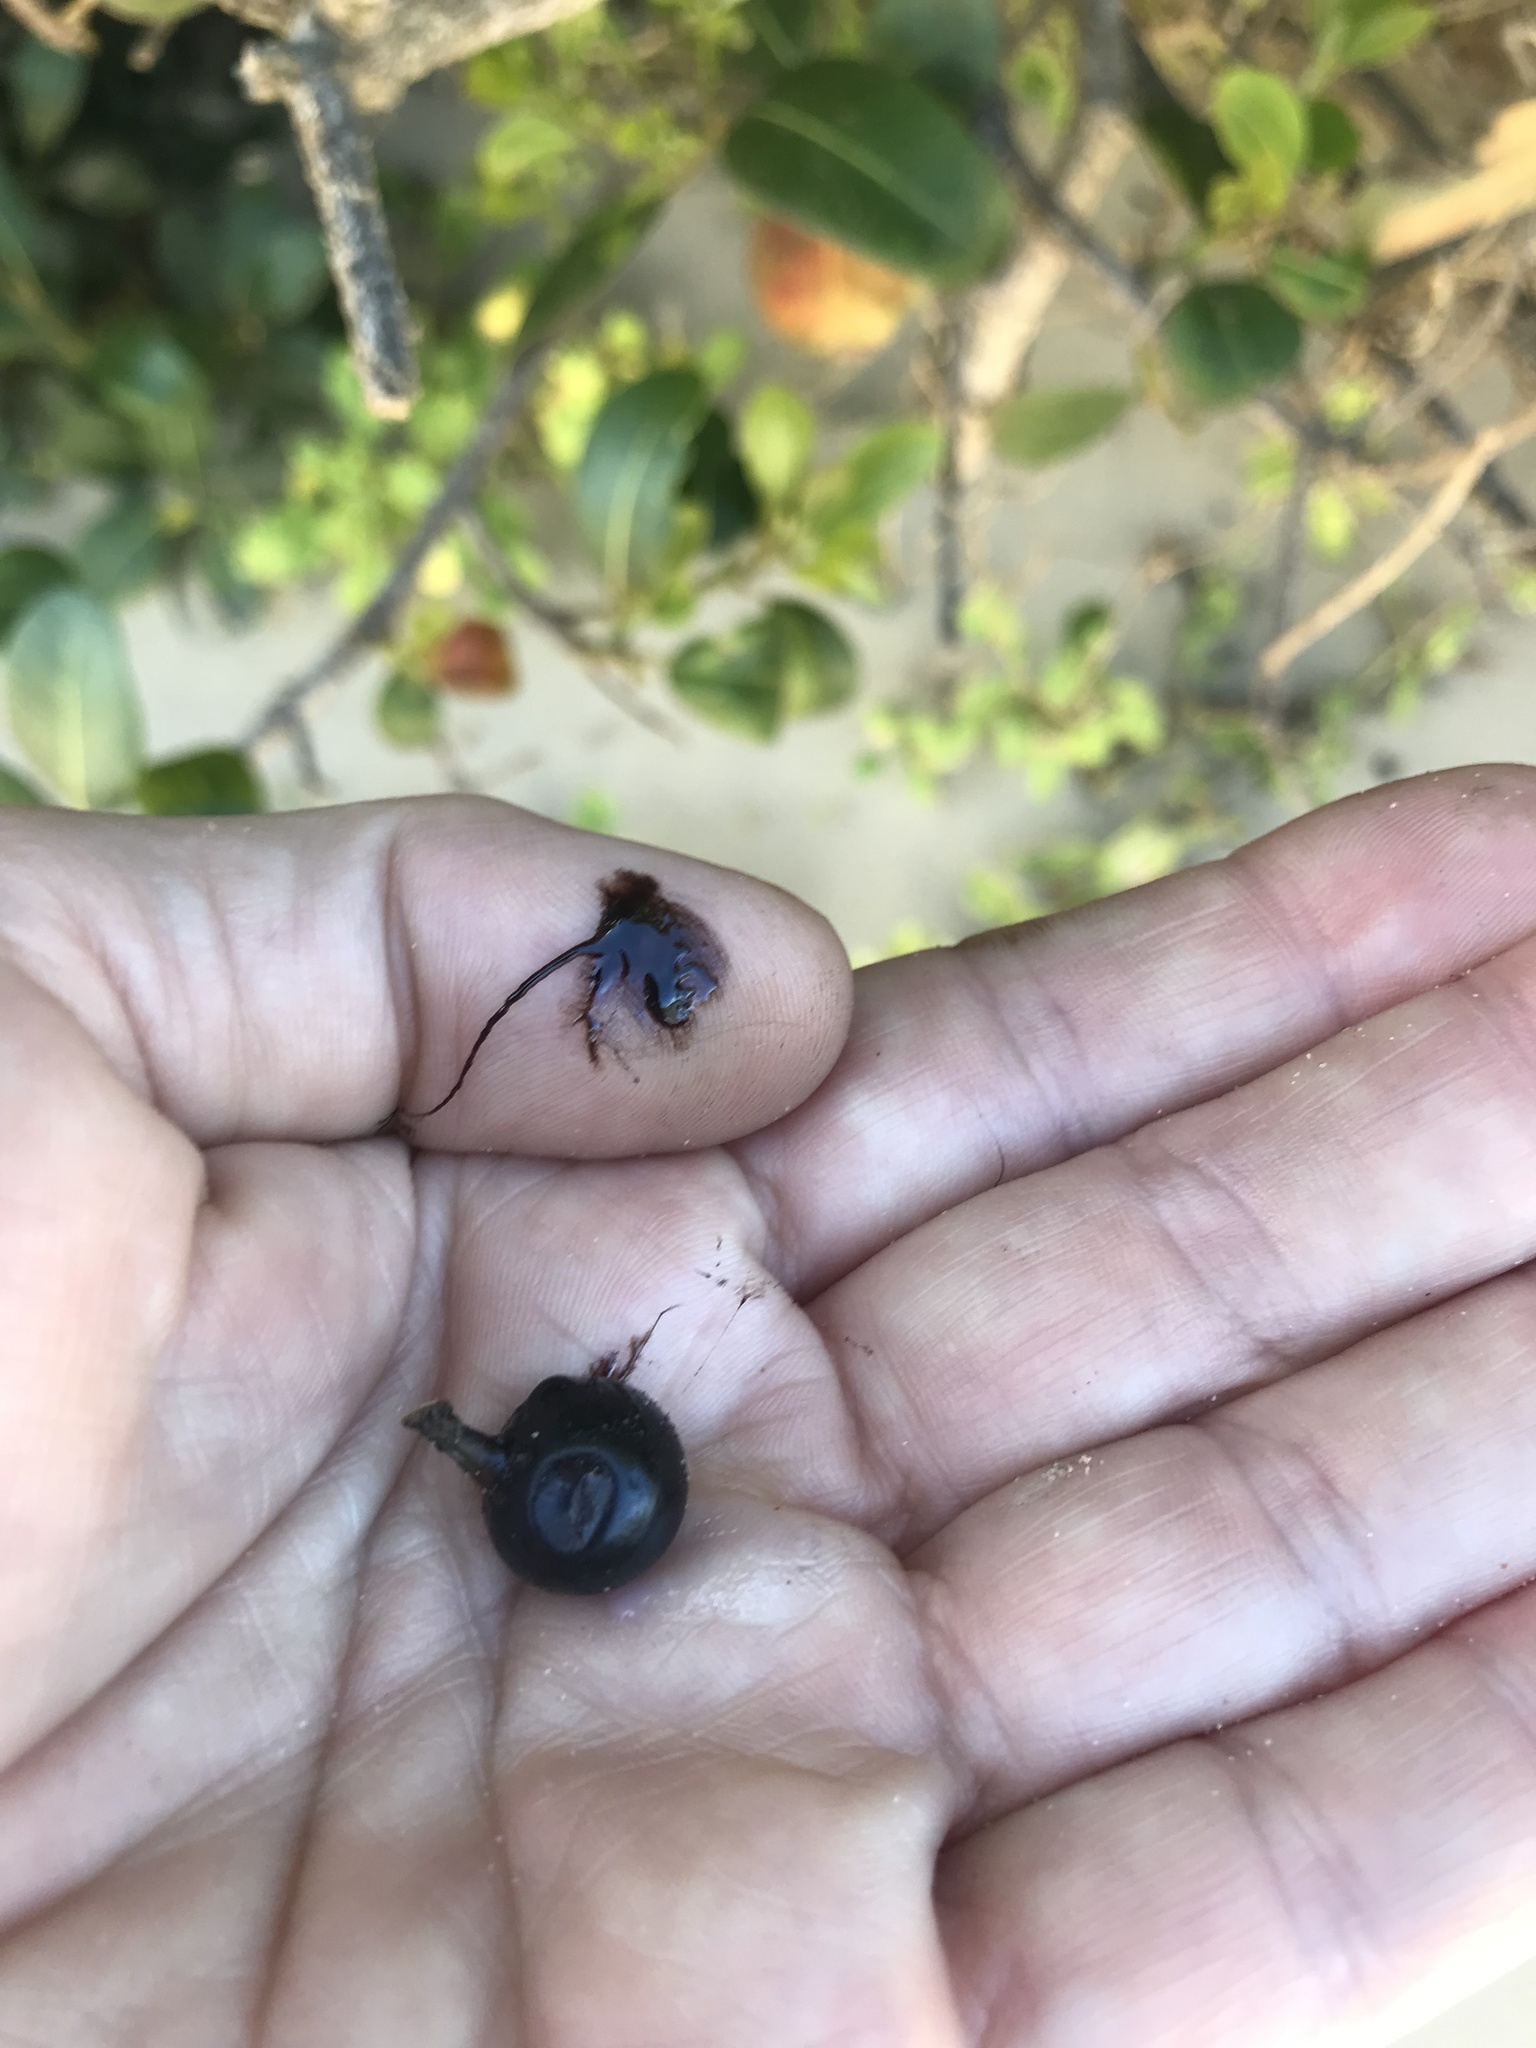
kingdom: Plantae
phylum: Tracheophyta
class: Magnoliopsida
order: Ericales
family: Sapotaceae
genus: Sideroxylon
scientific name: Sideroxylon inerme
